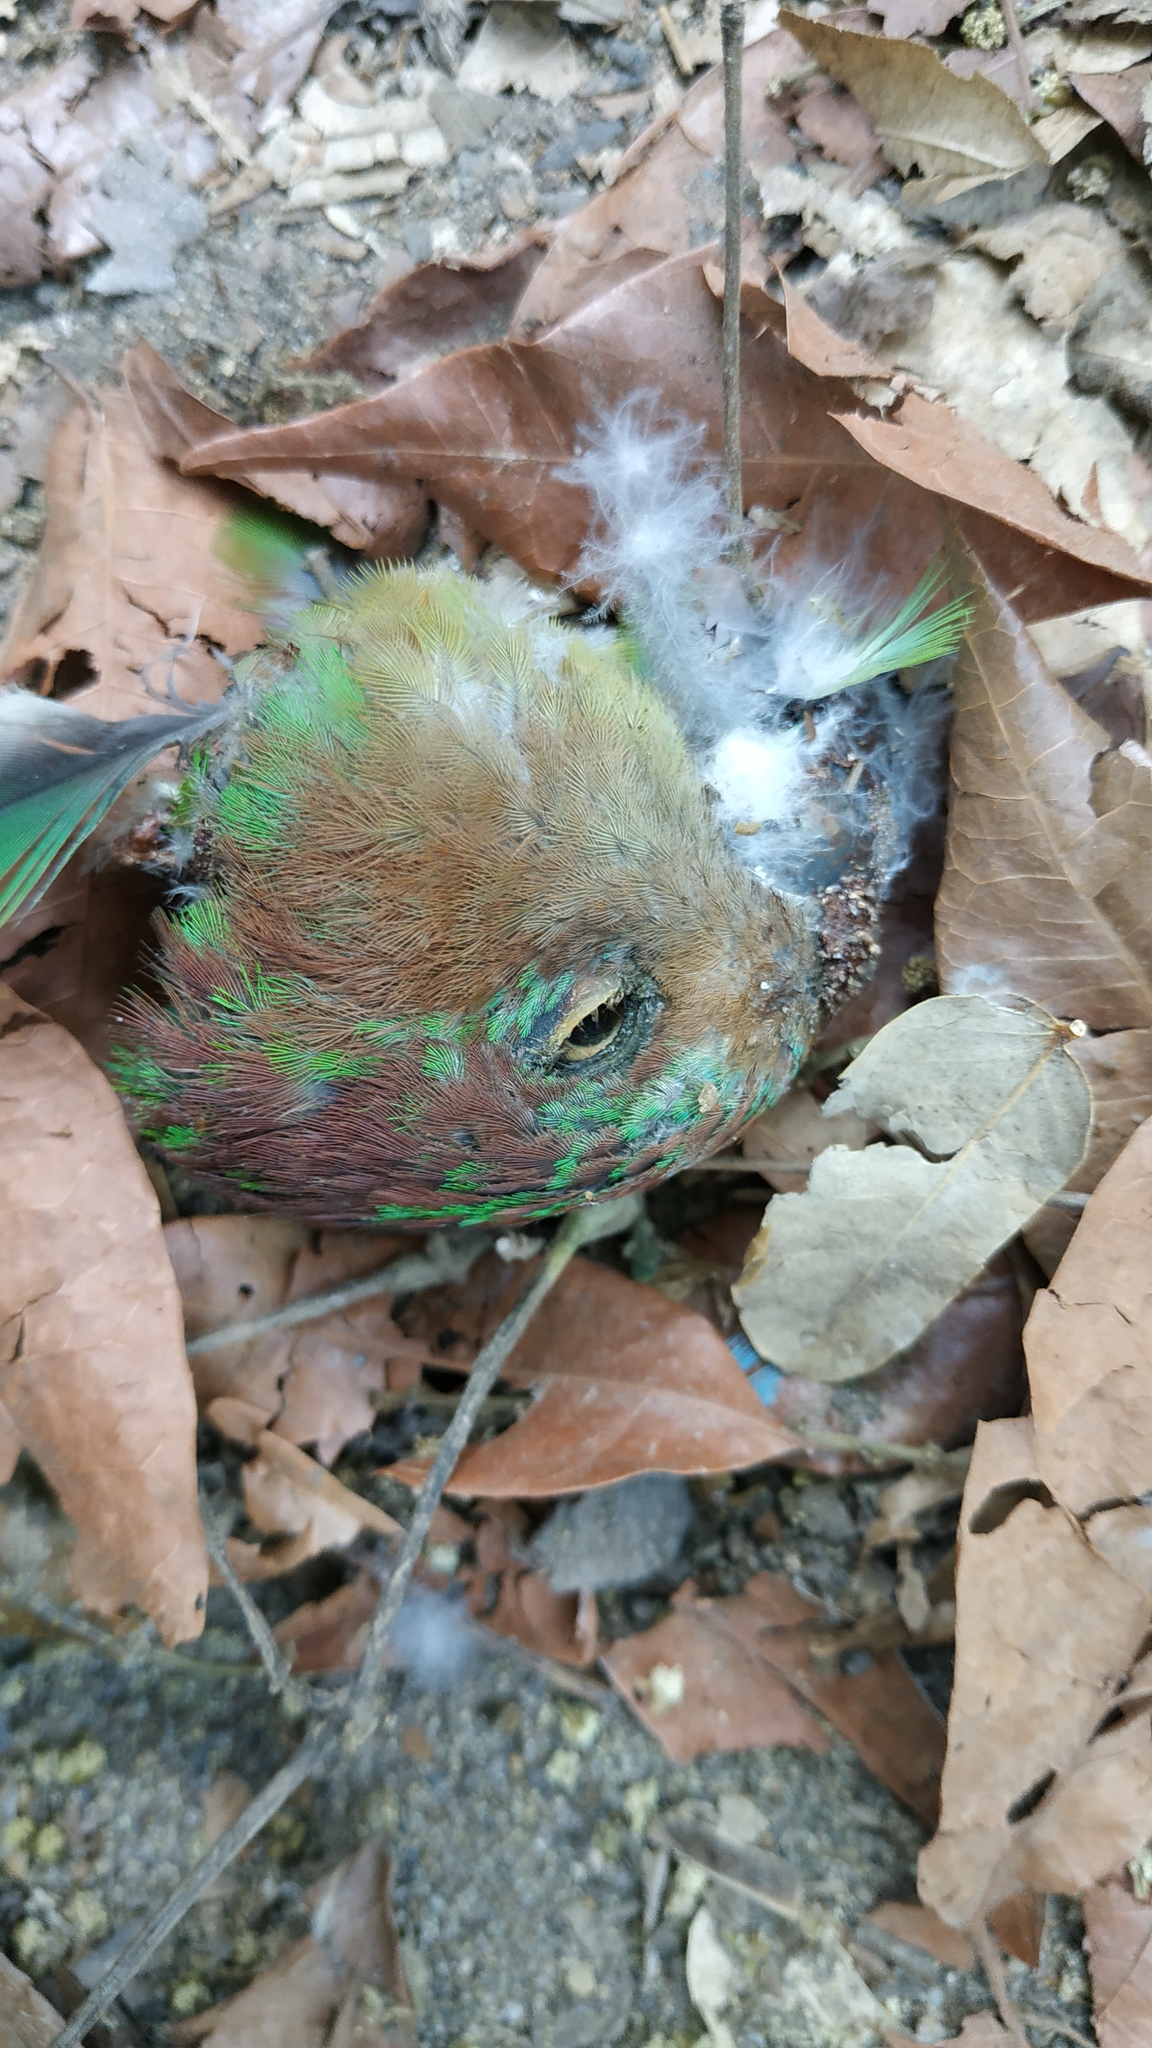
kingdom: Animalia
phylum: Chordata
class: Aves
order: Psittaciformes
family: Psittacidae
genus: Geoffroyus
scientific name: Geoffroyus geoffroyi
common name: Red-cheeked parrot
